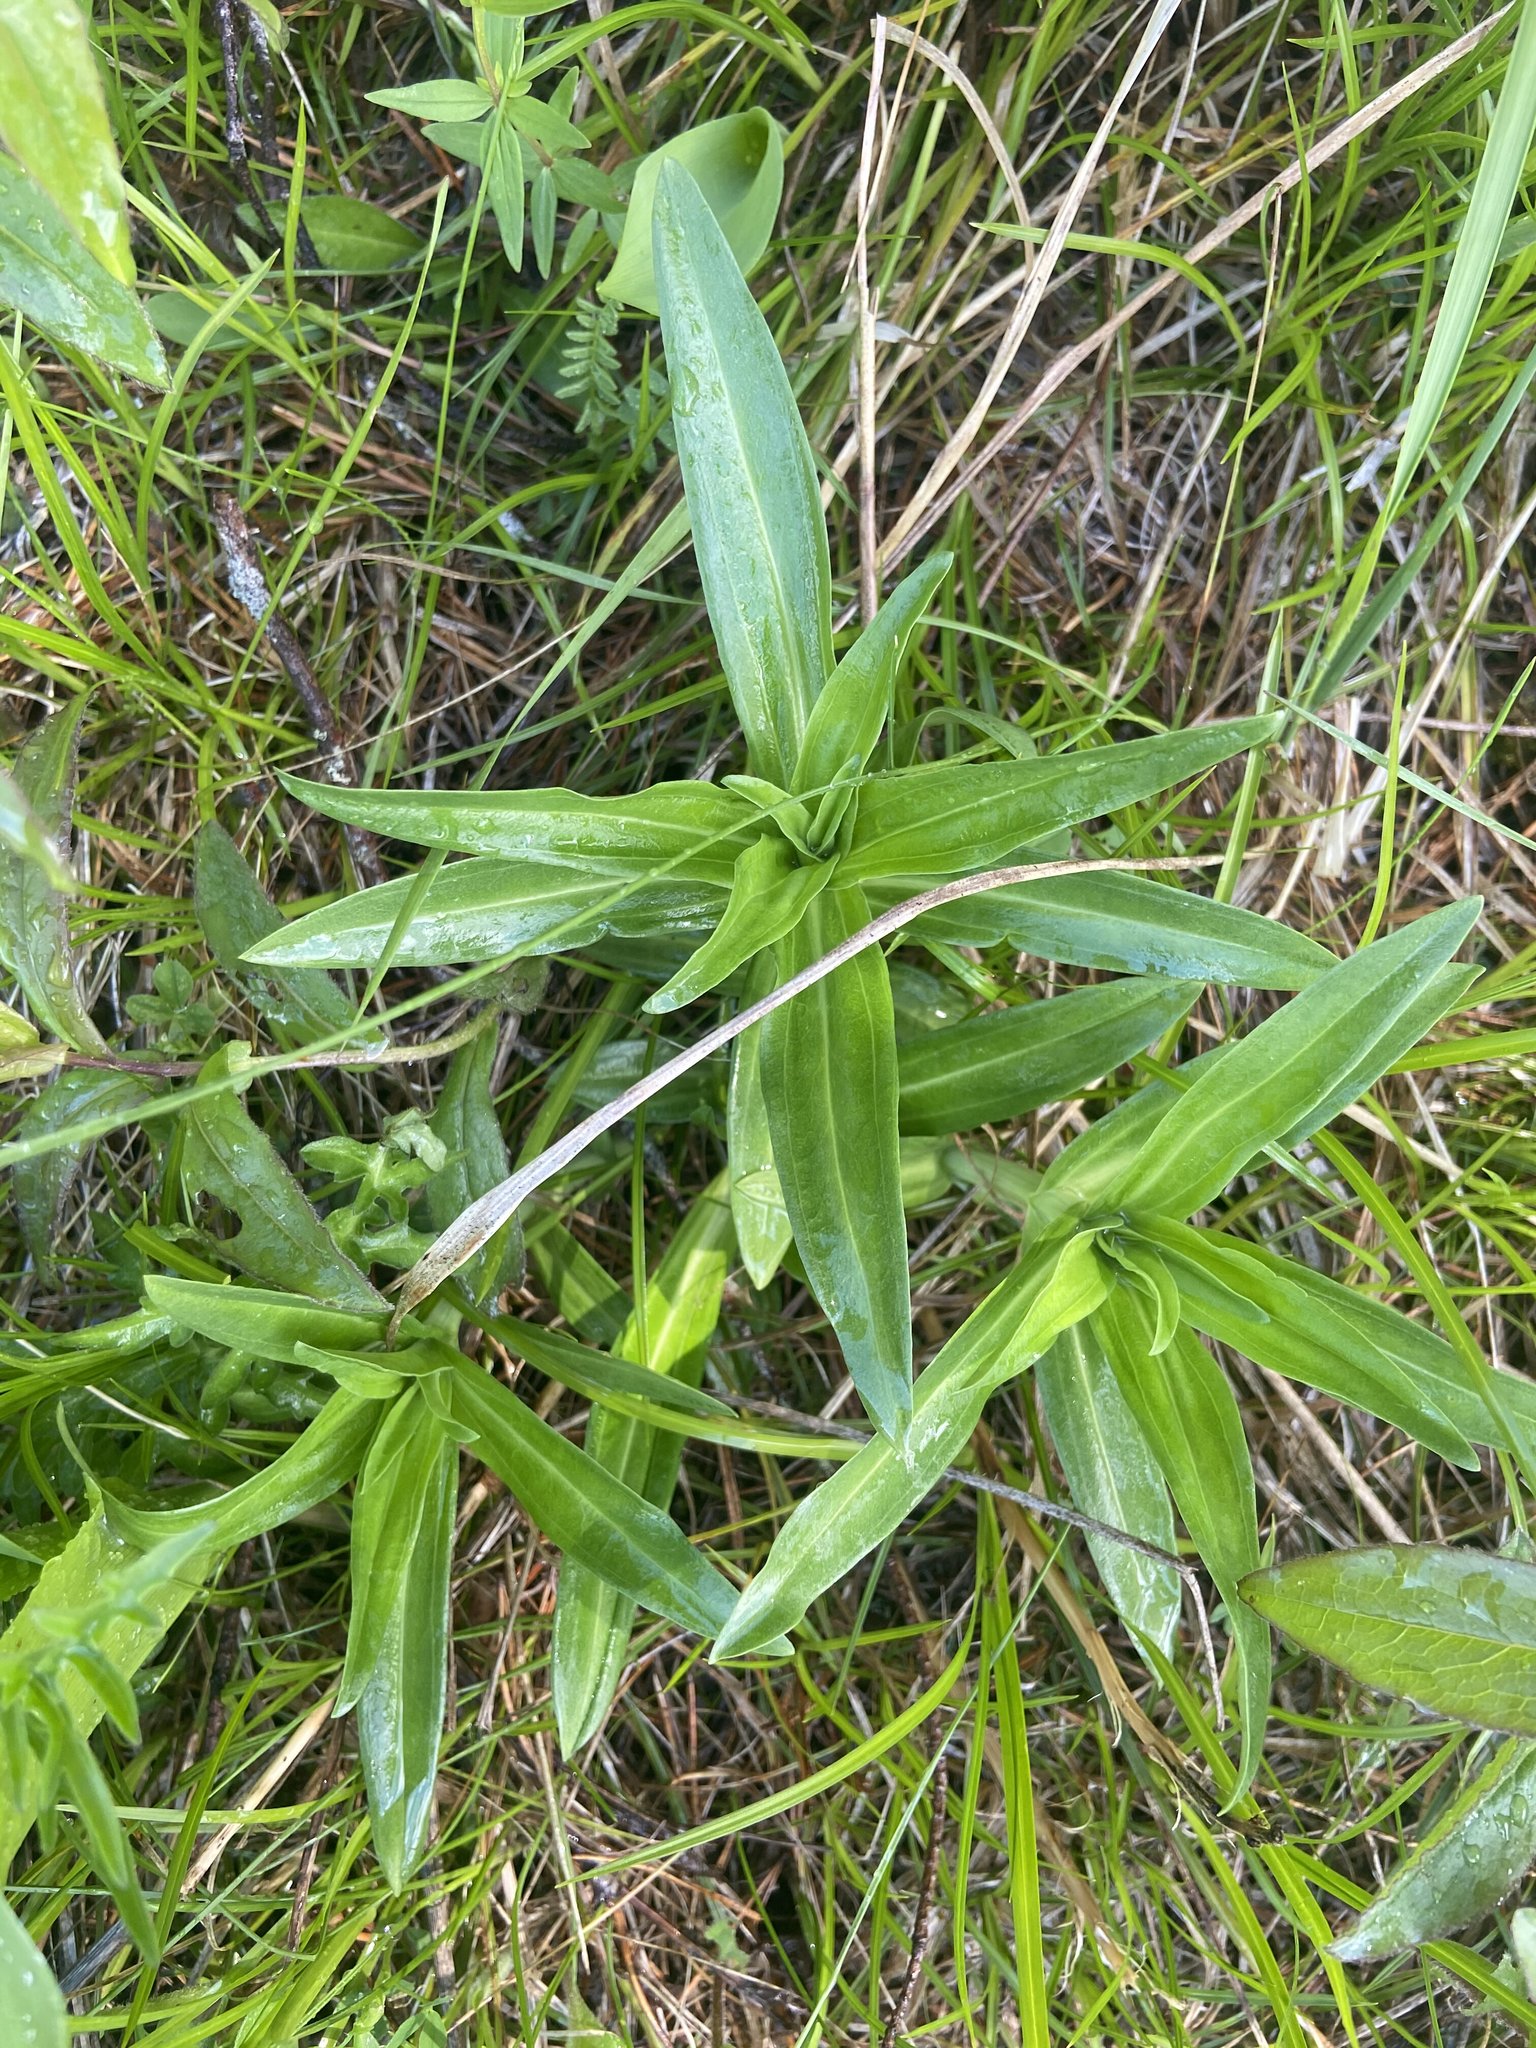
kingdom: Plantae
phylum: Tracheophyta
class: Magnoliopsida
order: Gentianales
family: Gentianaceae
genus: Gentiana
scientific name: Gentiana cruciata
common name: Cross gentian
